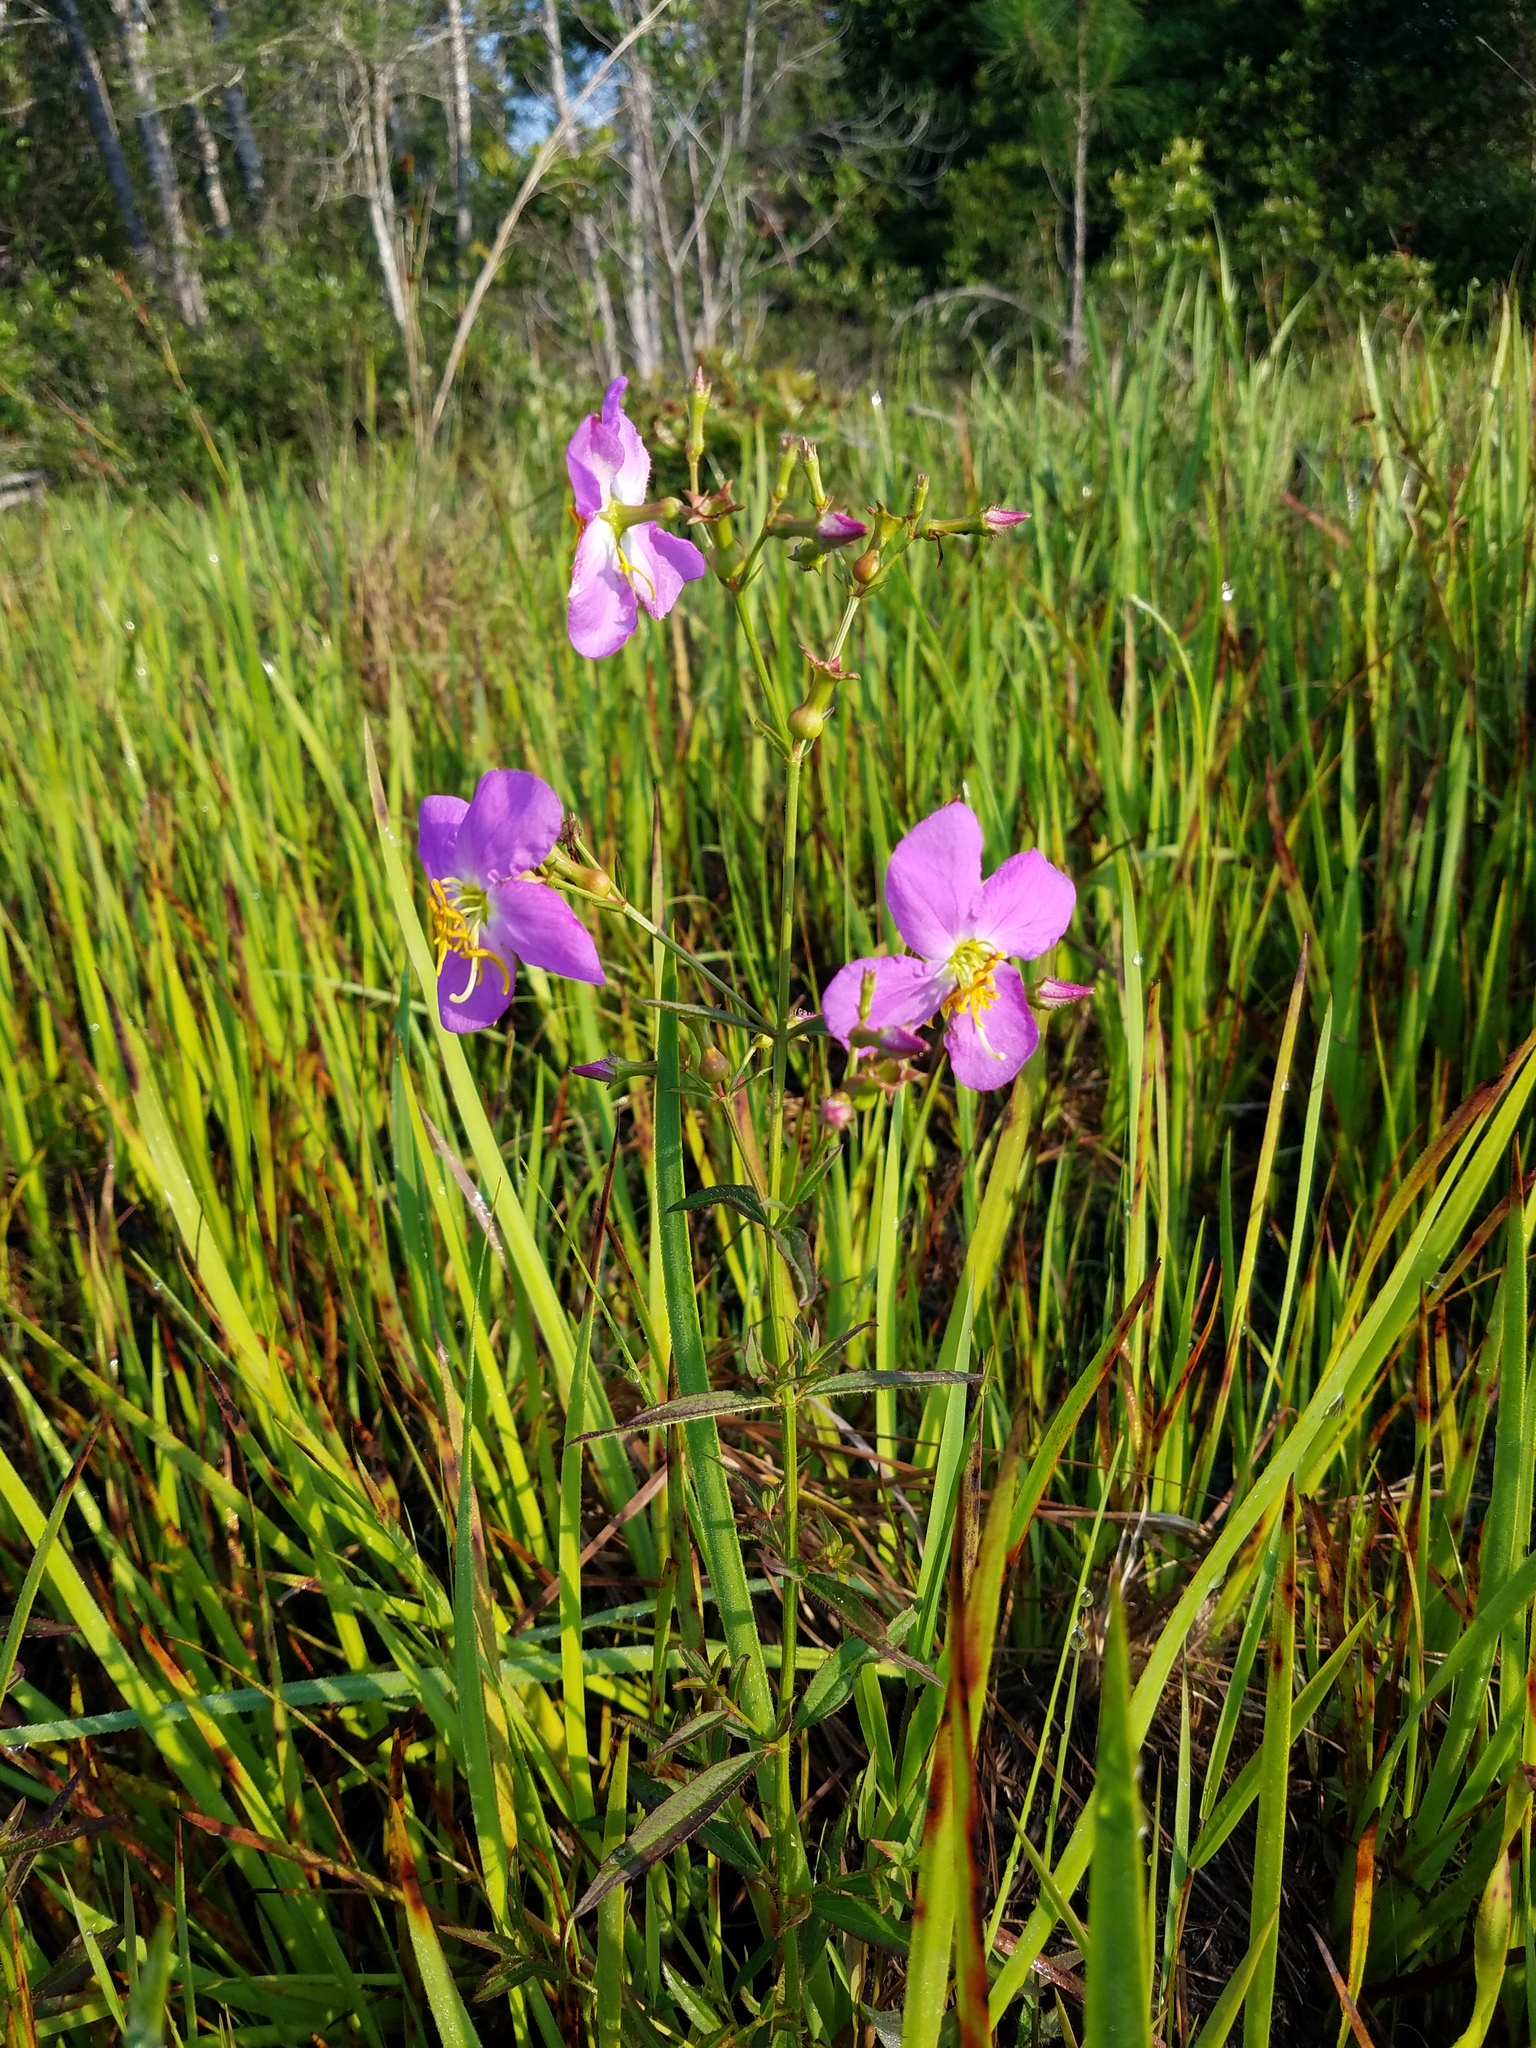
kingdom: Plantae
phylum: Tracheophyta
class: Magnoliopsida
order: Myrtales
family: Melastomataceae
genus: Rhexia
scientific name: Rhexia nashii
